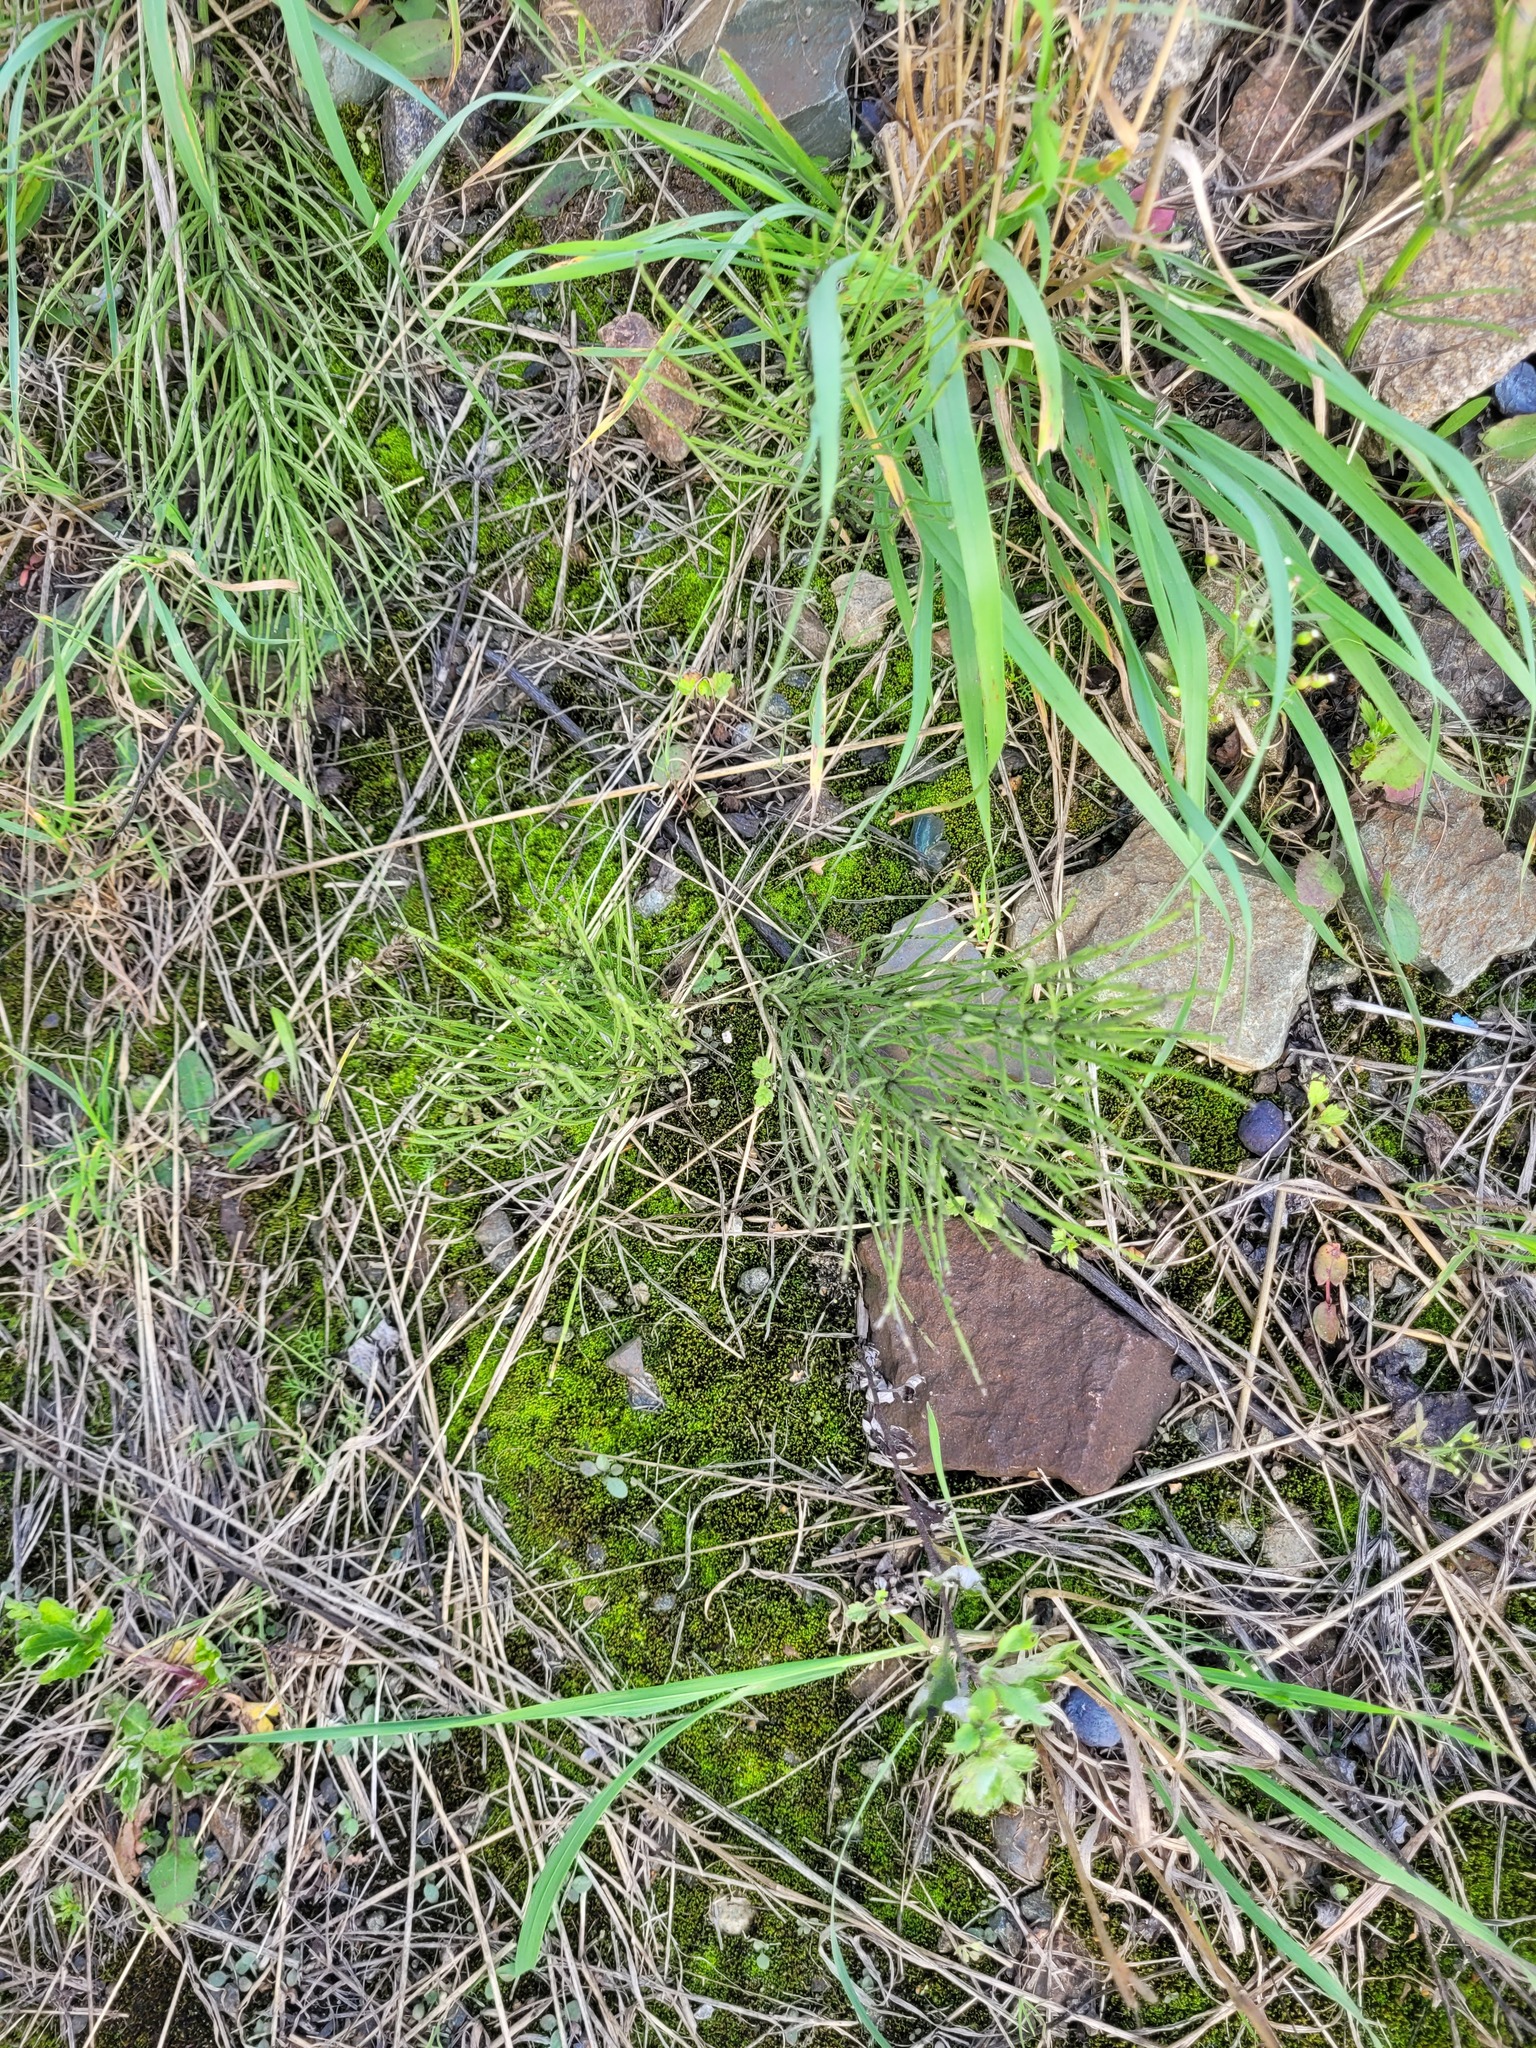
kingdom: Plantae
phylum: Tracheophyta
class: Polypodiopsida
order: Equisetales
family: Equisetaceae
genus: Equisetum
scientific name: Equisetum arvense
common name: Field horsetail
